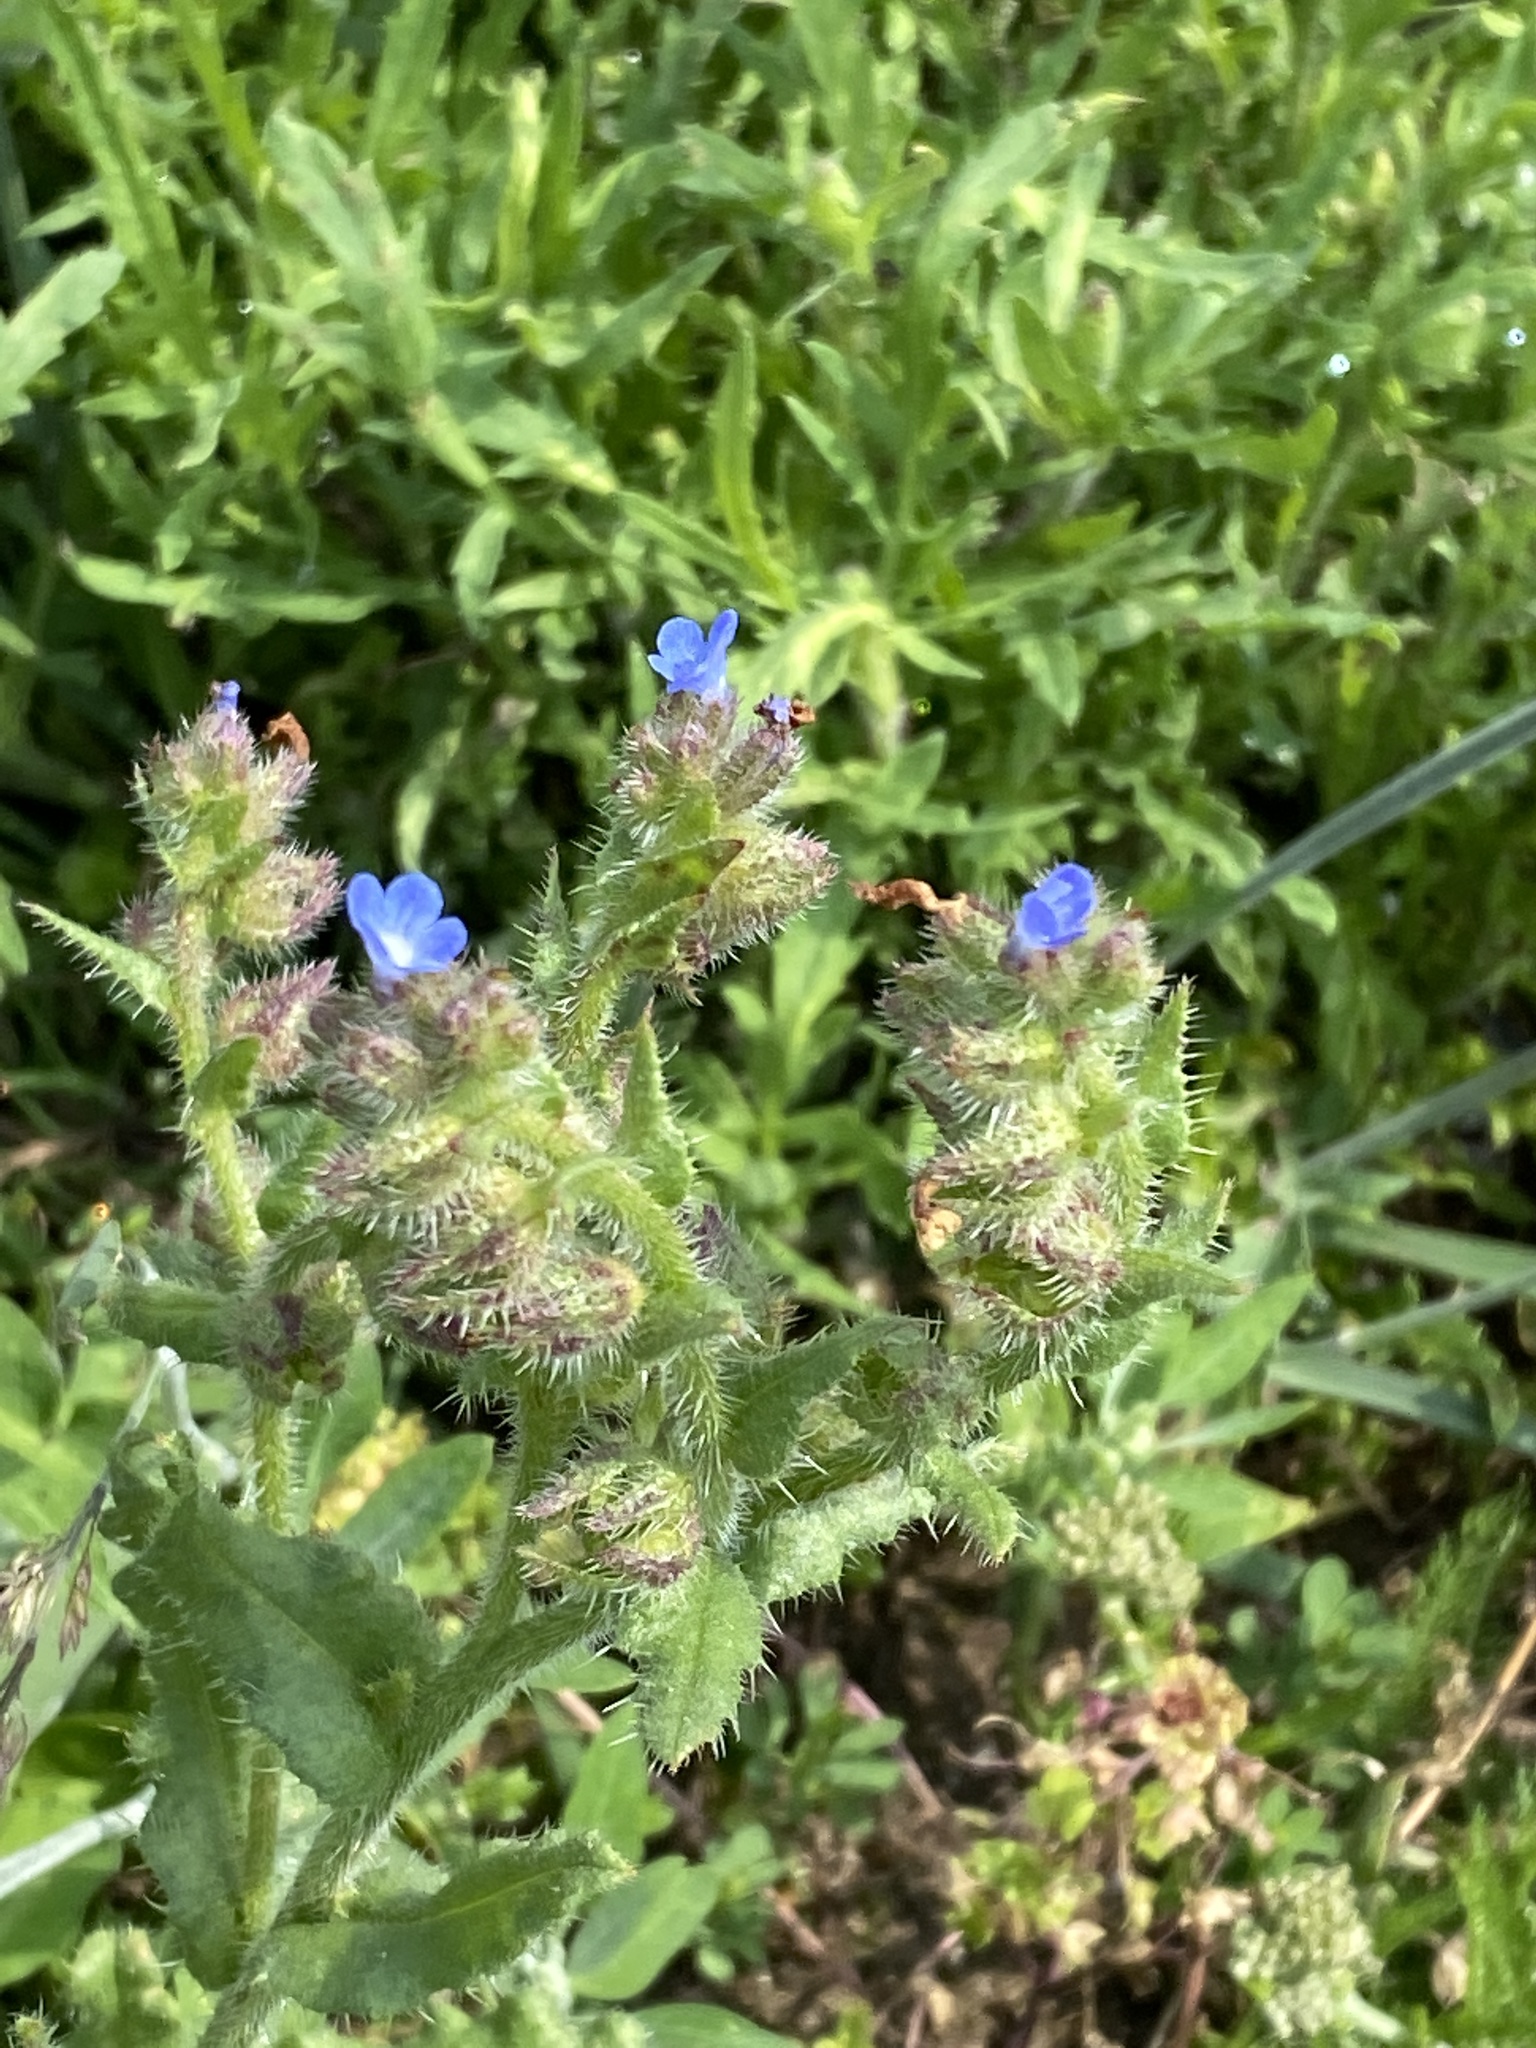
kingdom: Plantae
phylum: Tracheophyta
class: Magnoliopsida
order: Boraginales
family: Boraginaceae
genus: Lycopsis
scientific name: Lycopsis arvensis
